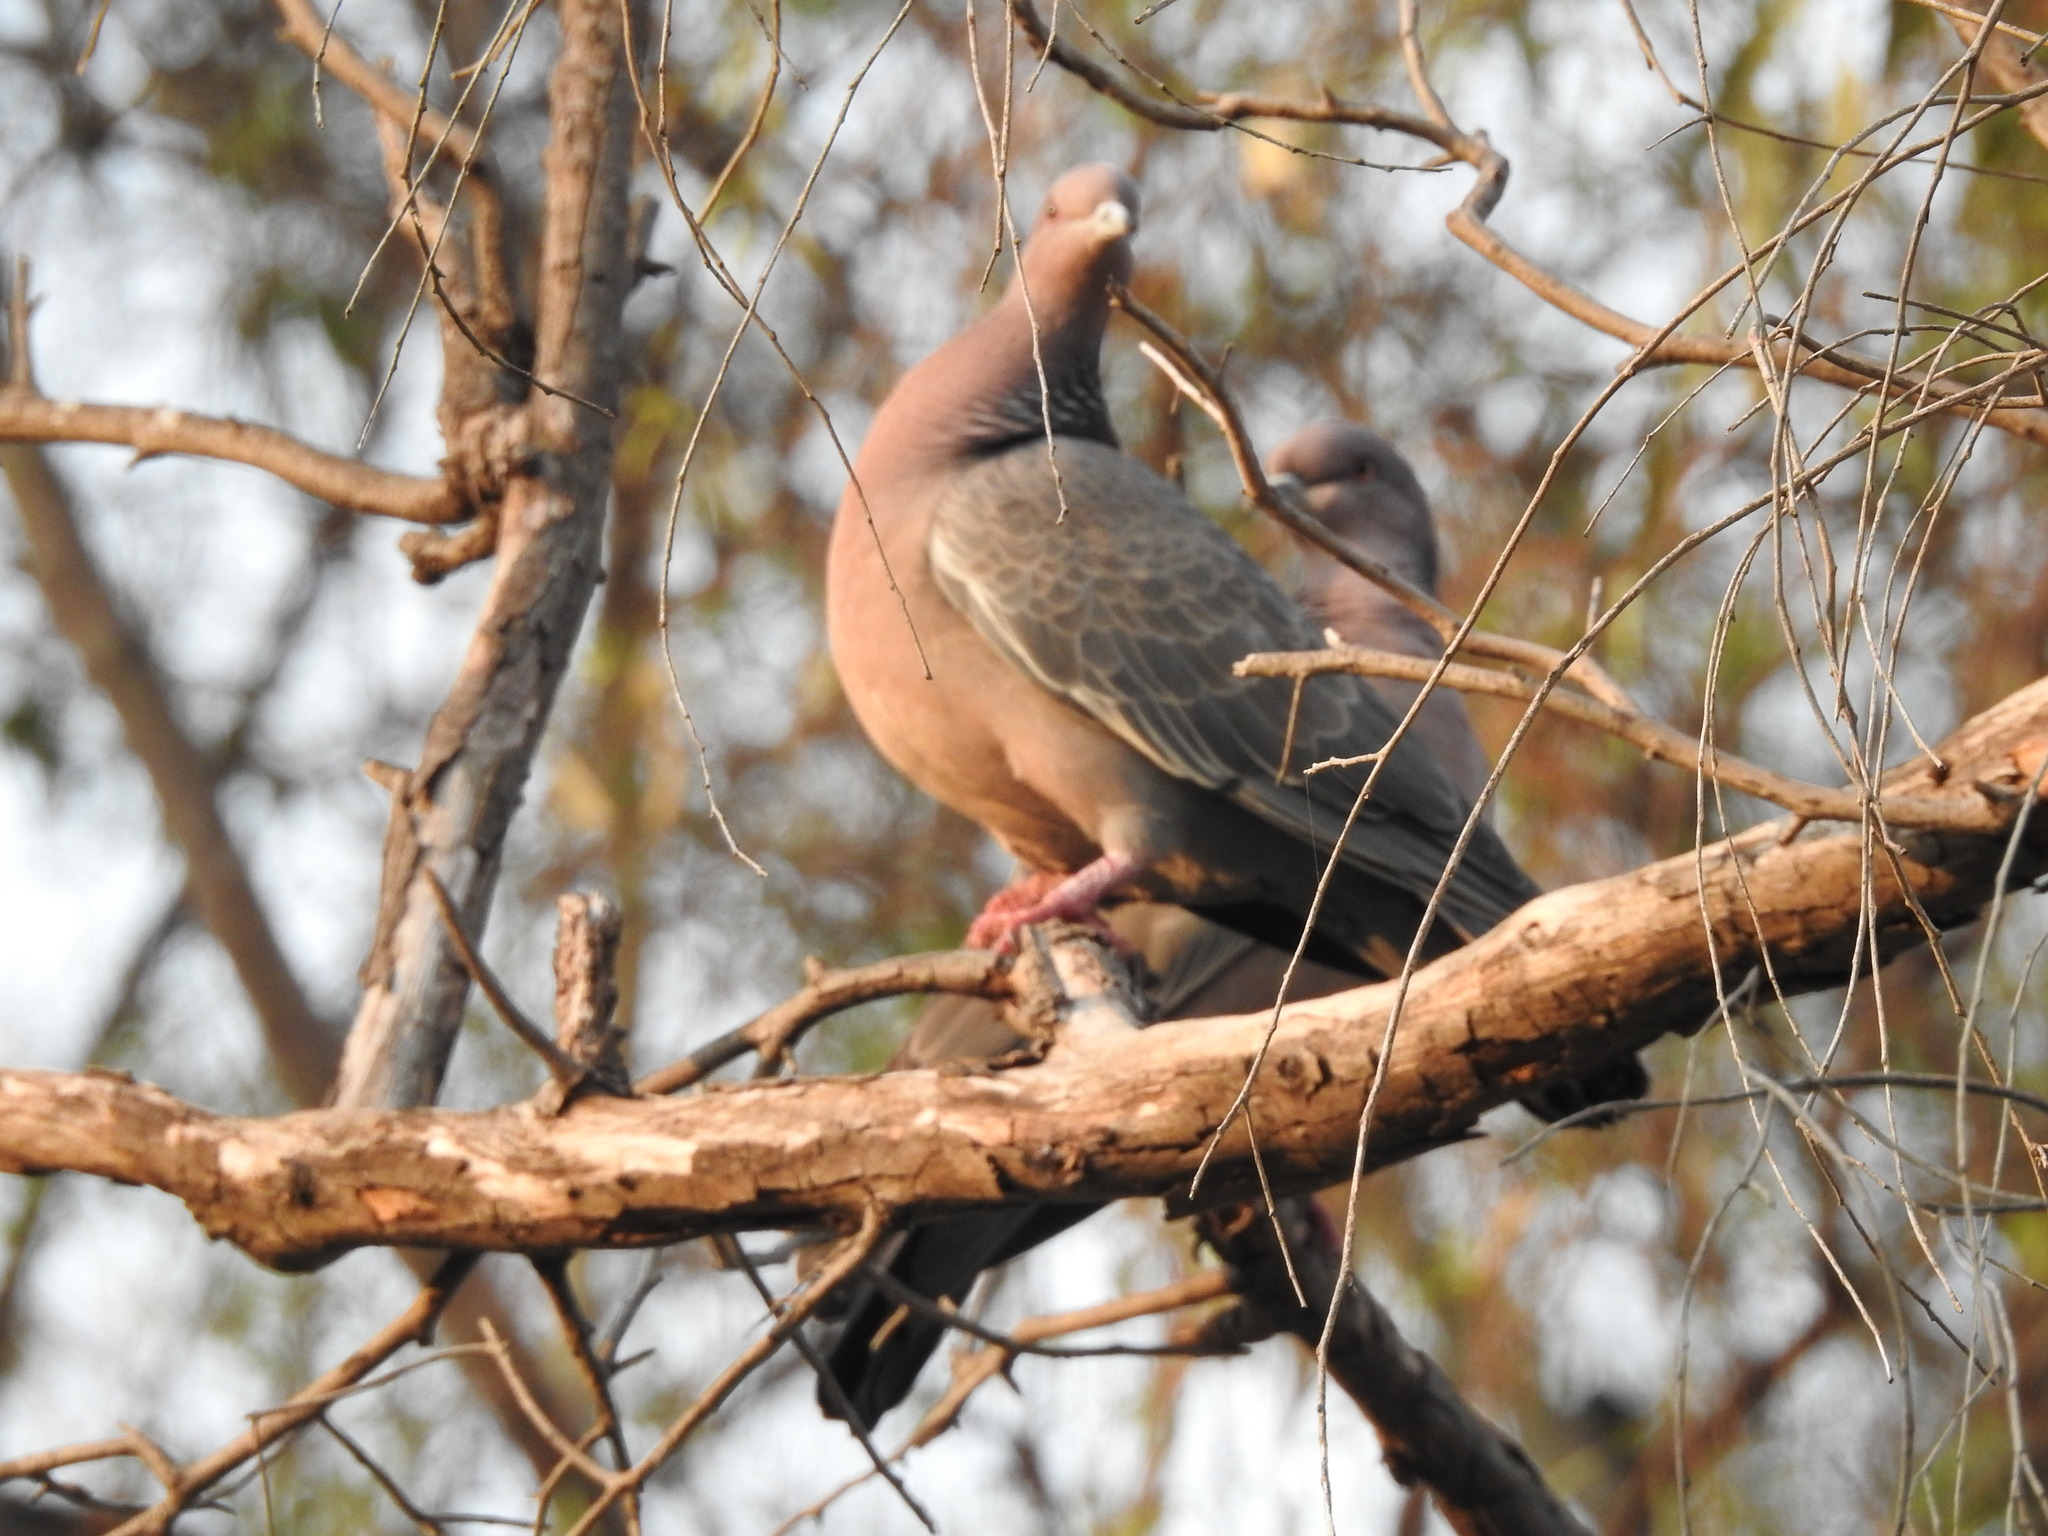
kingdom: Animalia
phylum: Chordata
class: Aves
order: Columbiformes
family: Columbidae
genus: Patagioenas
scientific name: Patagioenas picazuro
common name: Picazuro pigeon
